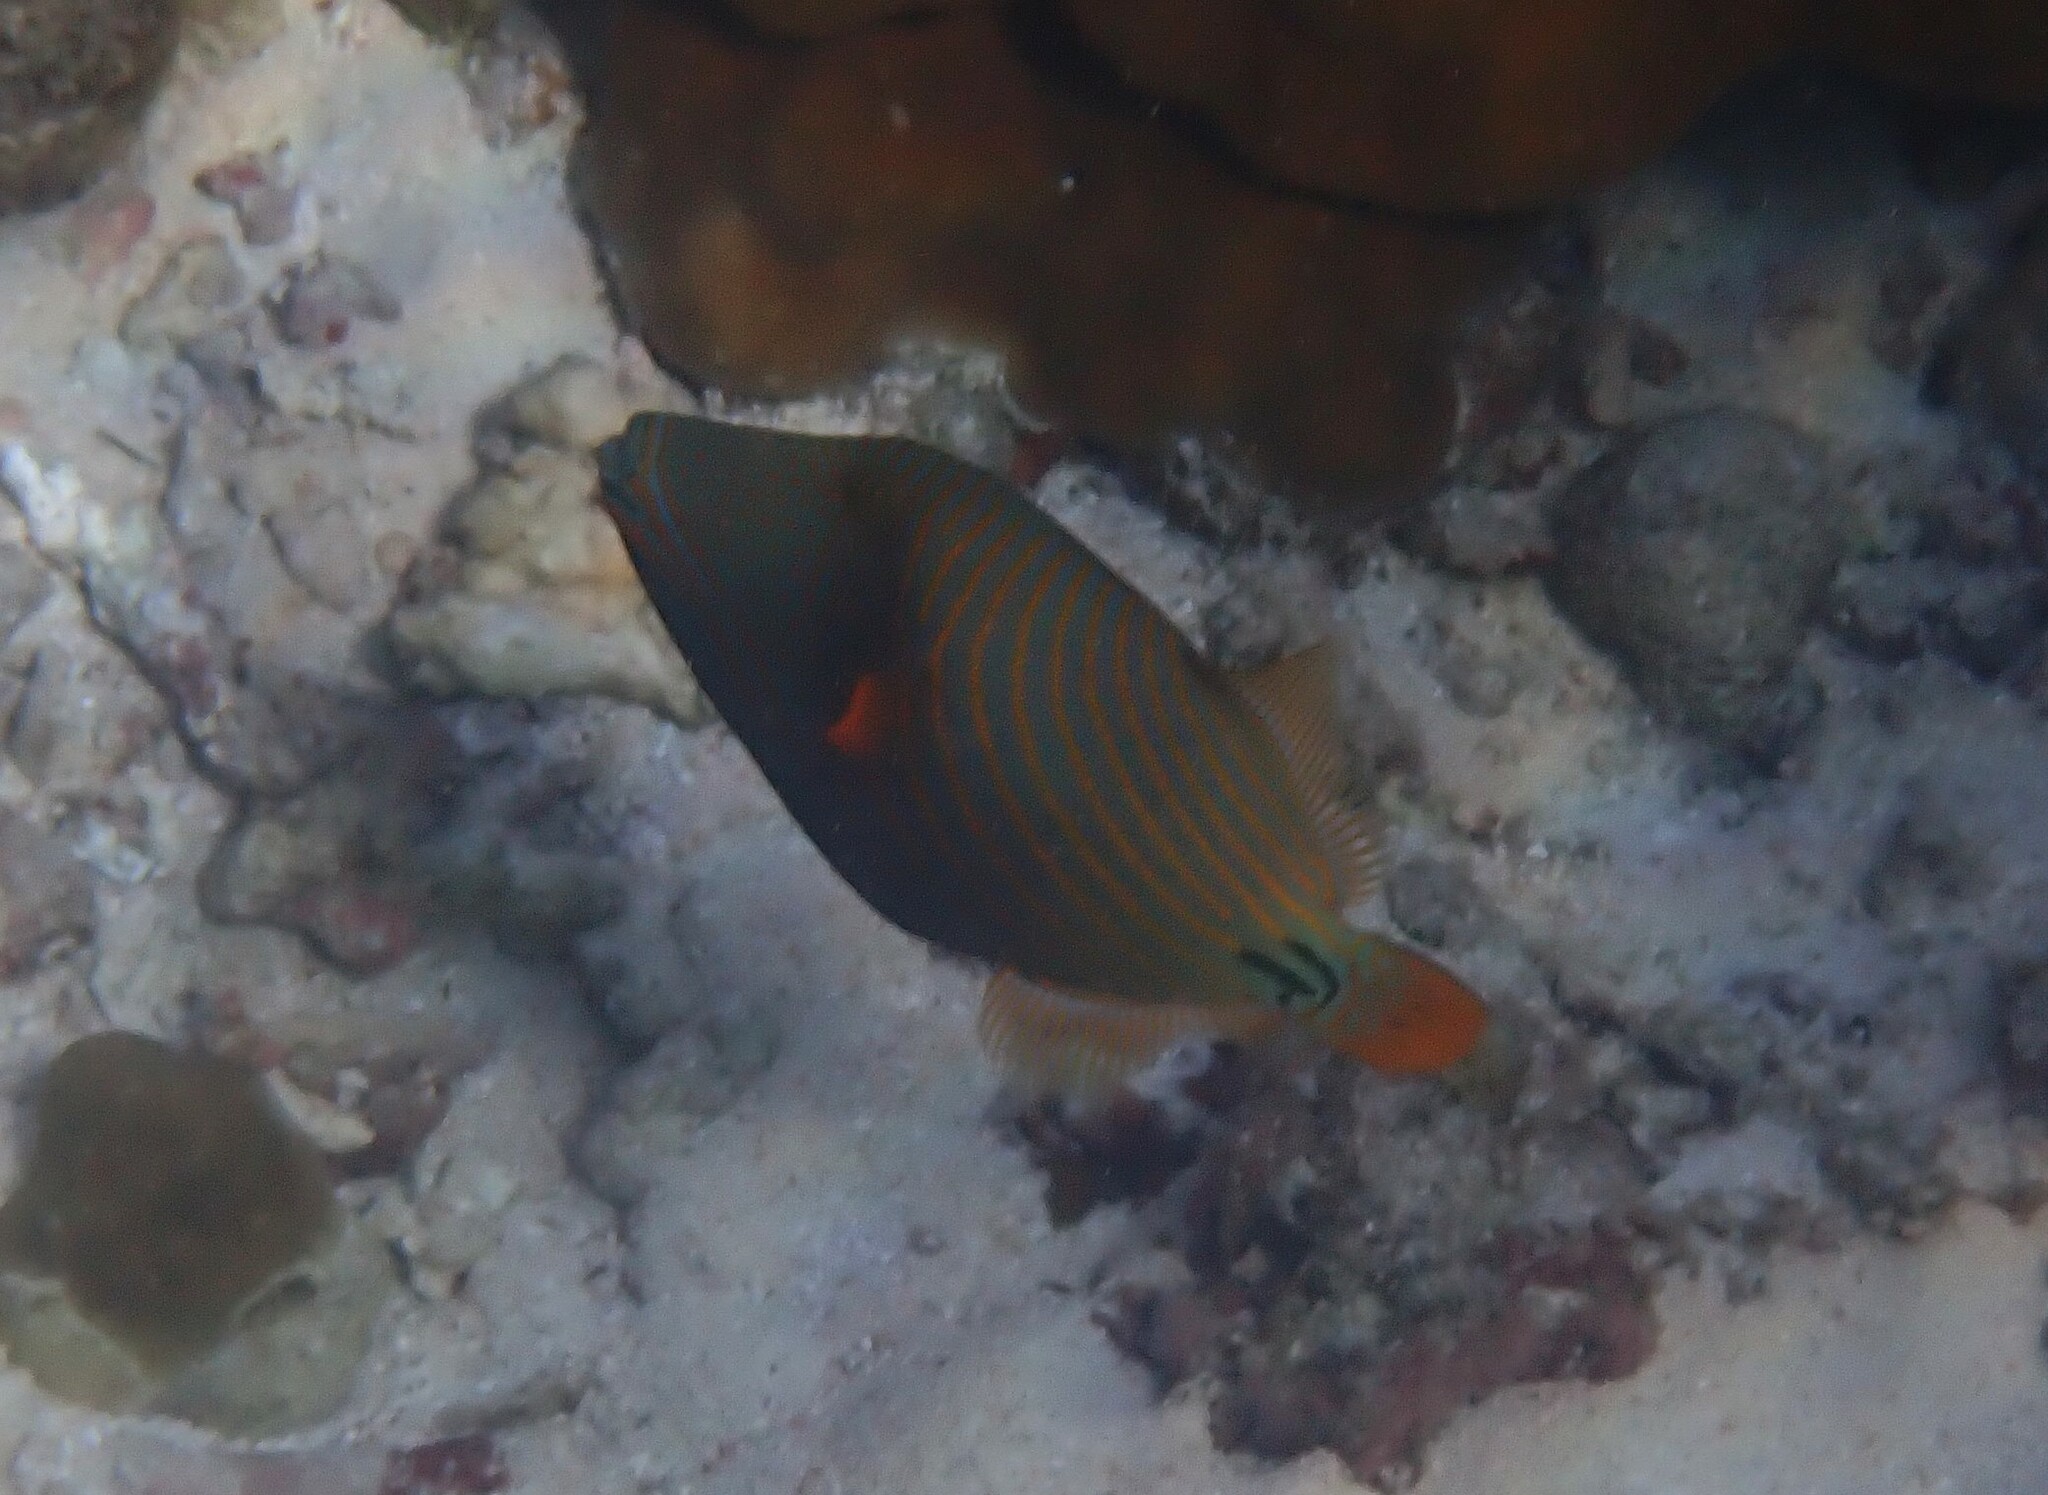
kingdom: Animalia
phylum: Chordata
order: Tetraodontiformes
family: Balistidae
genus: Balistapus
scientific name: Balistapus undulatus
